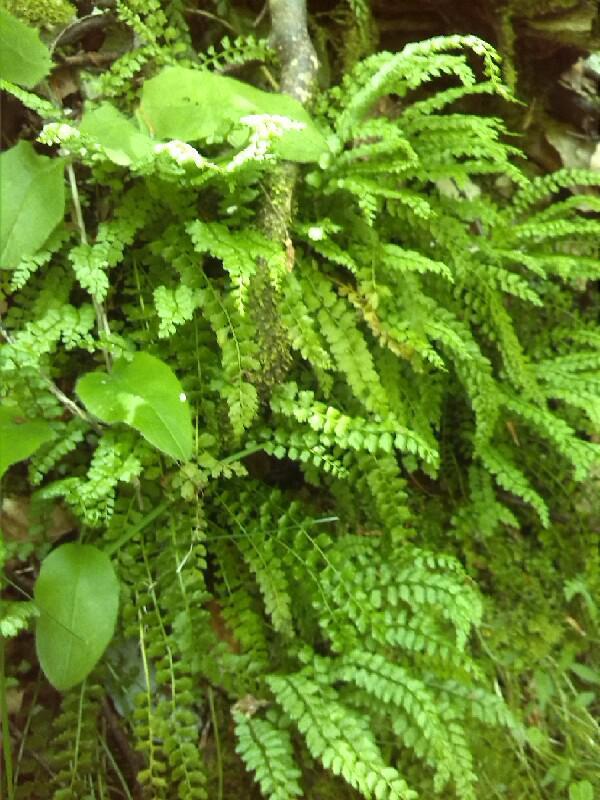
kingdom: Plantae
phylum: Tracheophyta
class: Polypodiopsida
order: Polypodiales
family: Aspleniaceae
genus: Asplenium
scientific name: Asplenium viride
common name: Green spleenwort
